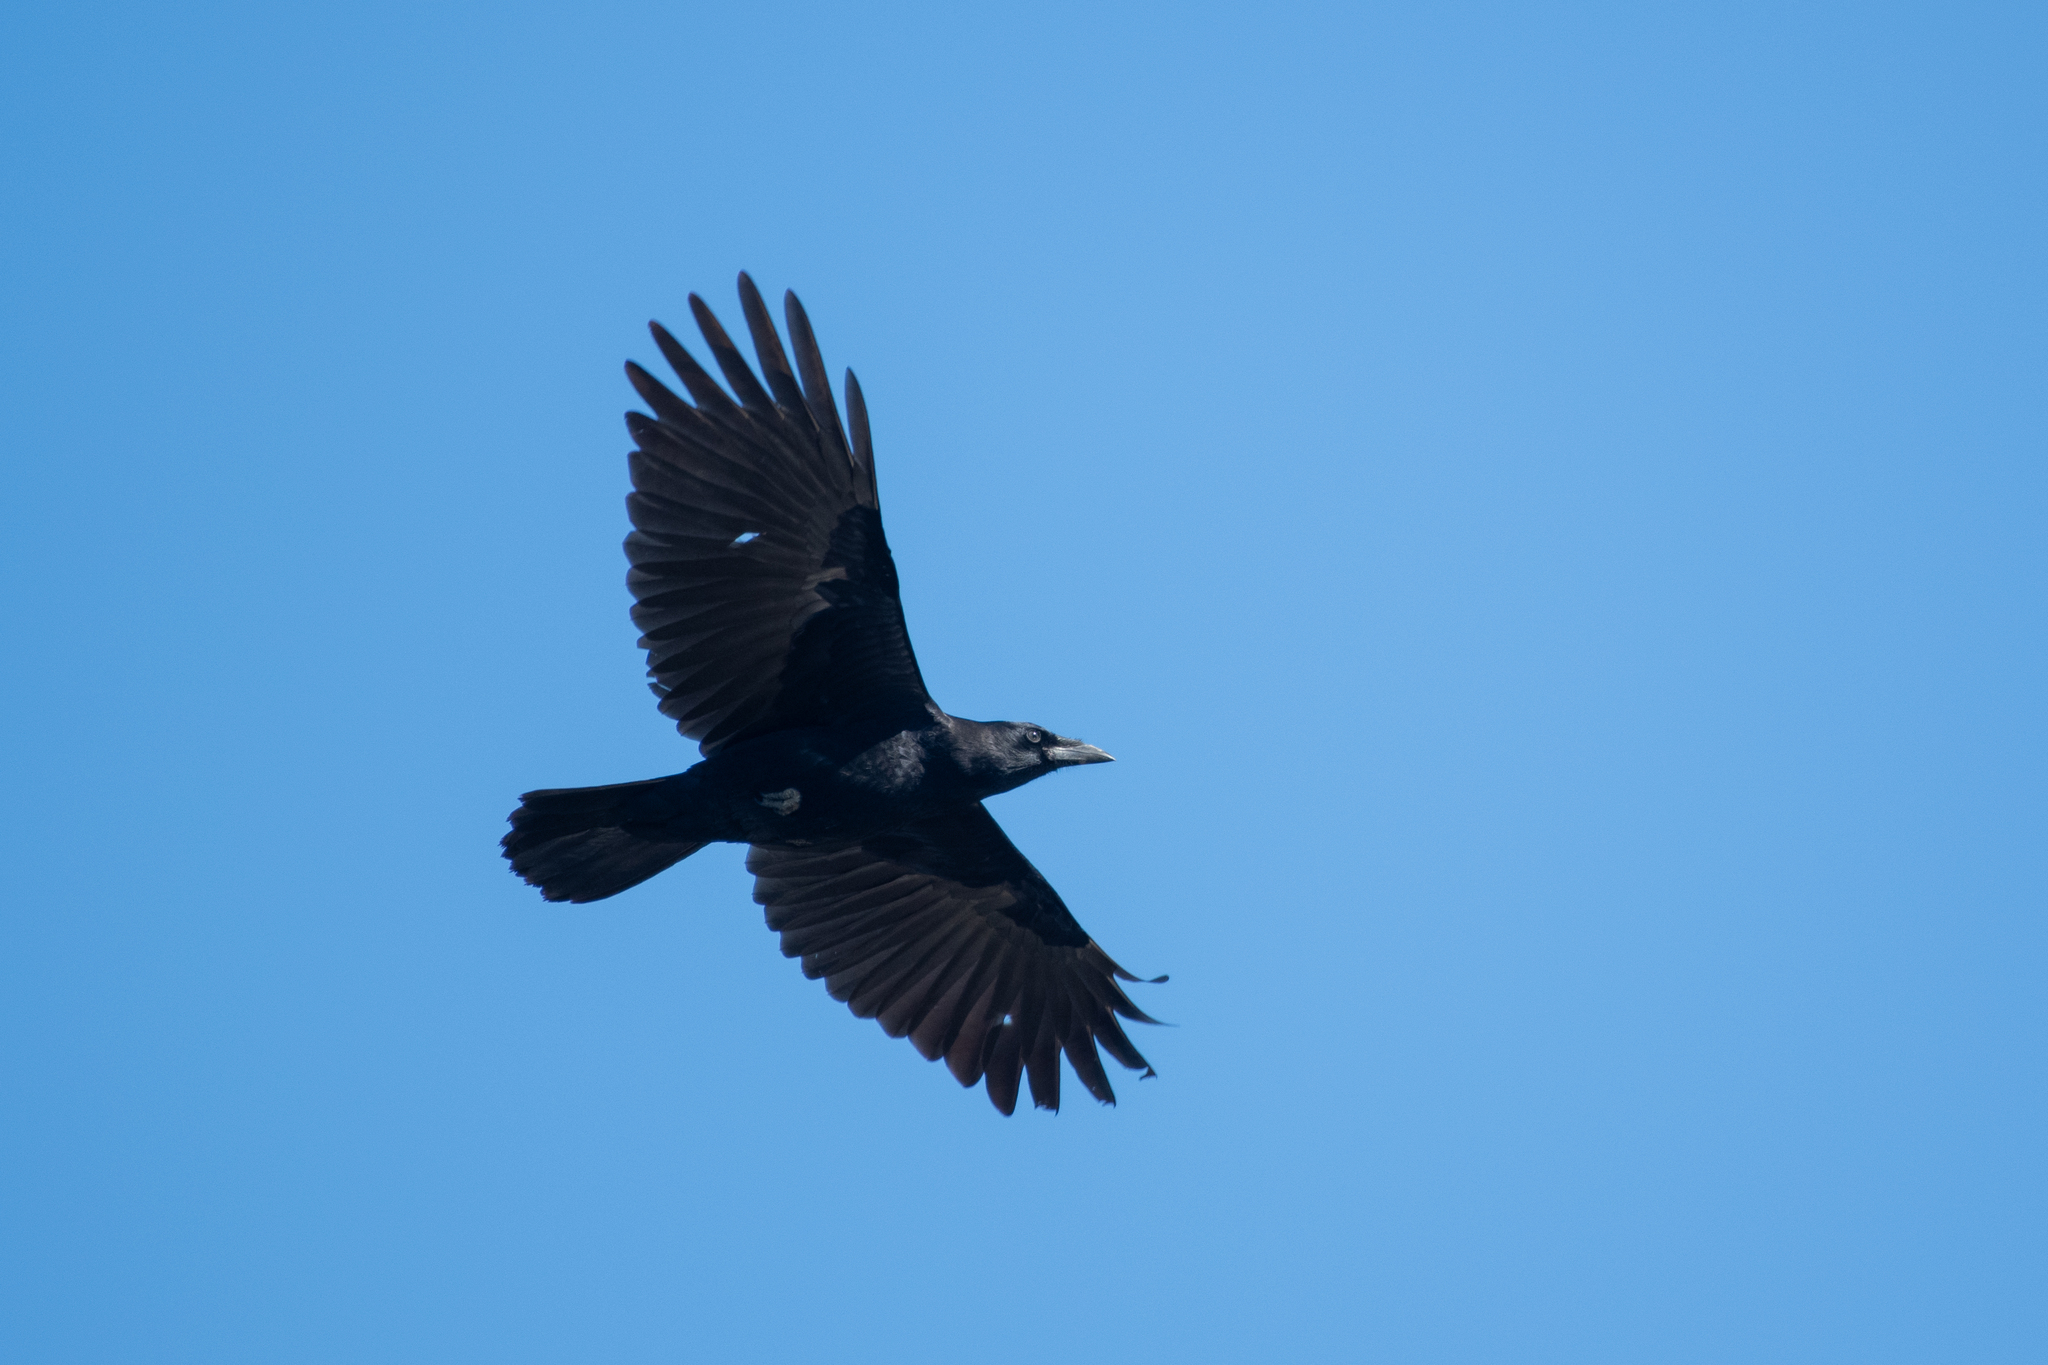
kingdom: Animalia
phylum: Chordata
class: Aves
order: Passeriformes
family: Corvidae
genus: Corvus
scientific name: Corvus brachyrhynchos
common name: American crow
